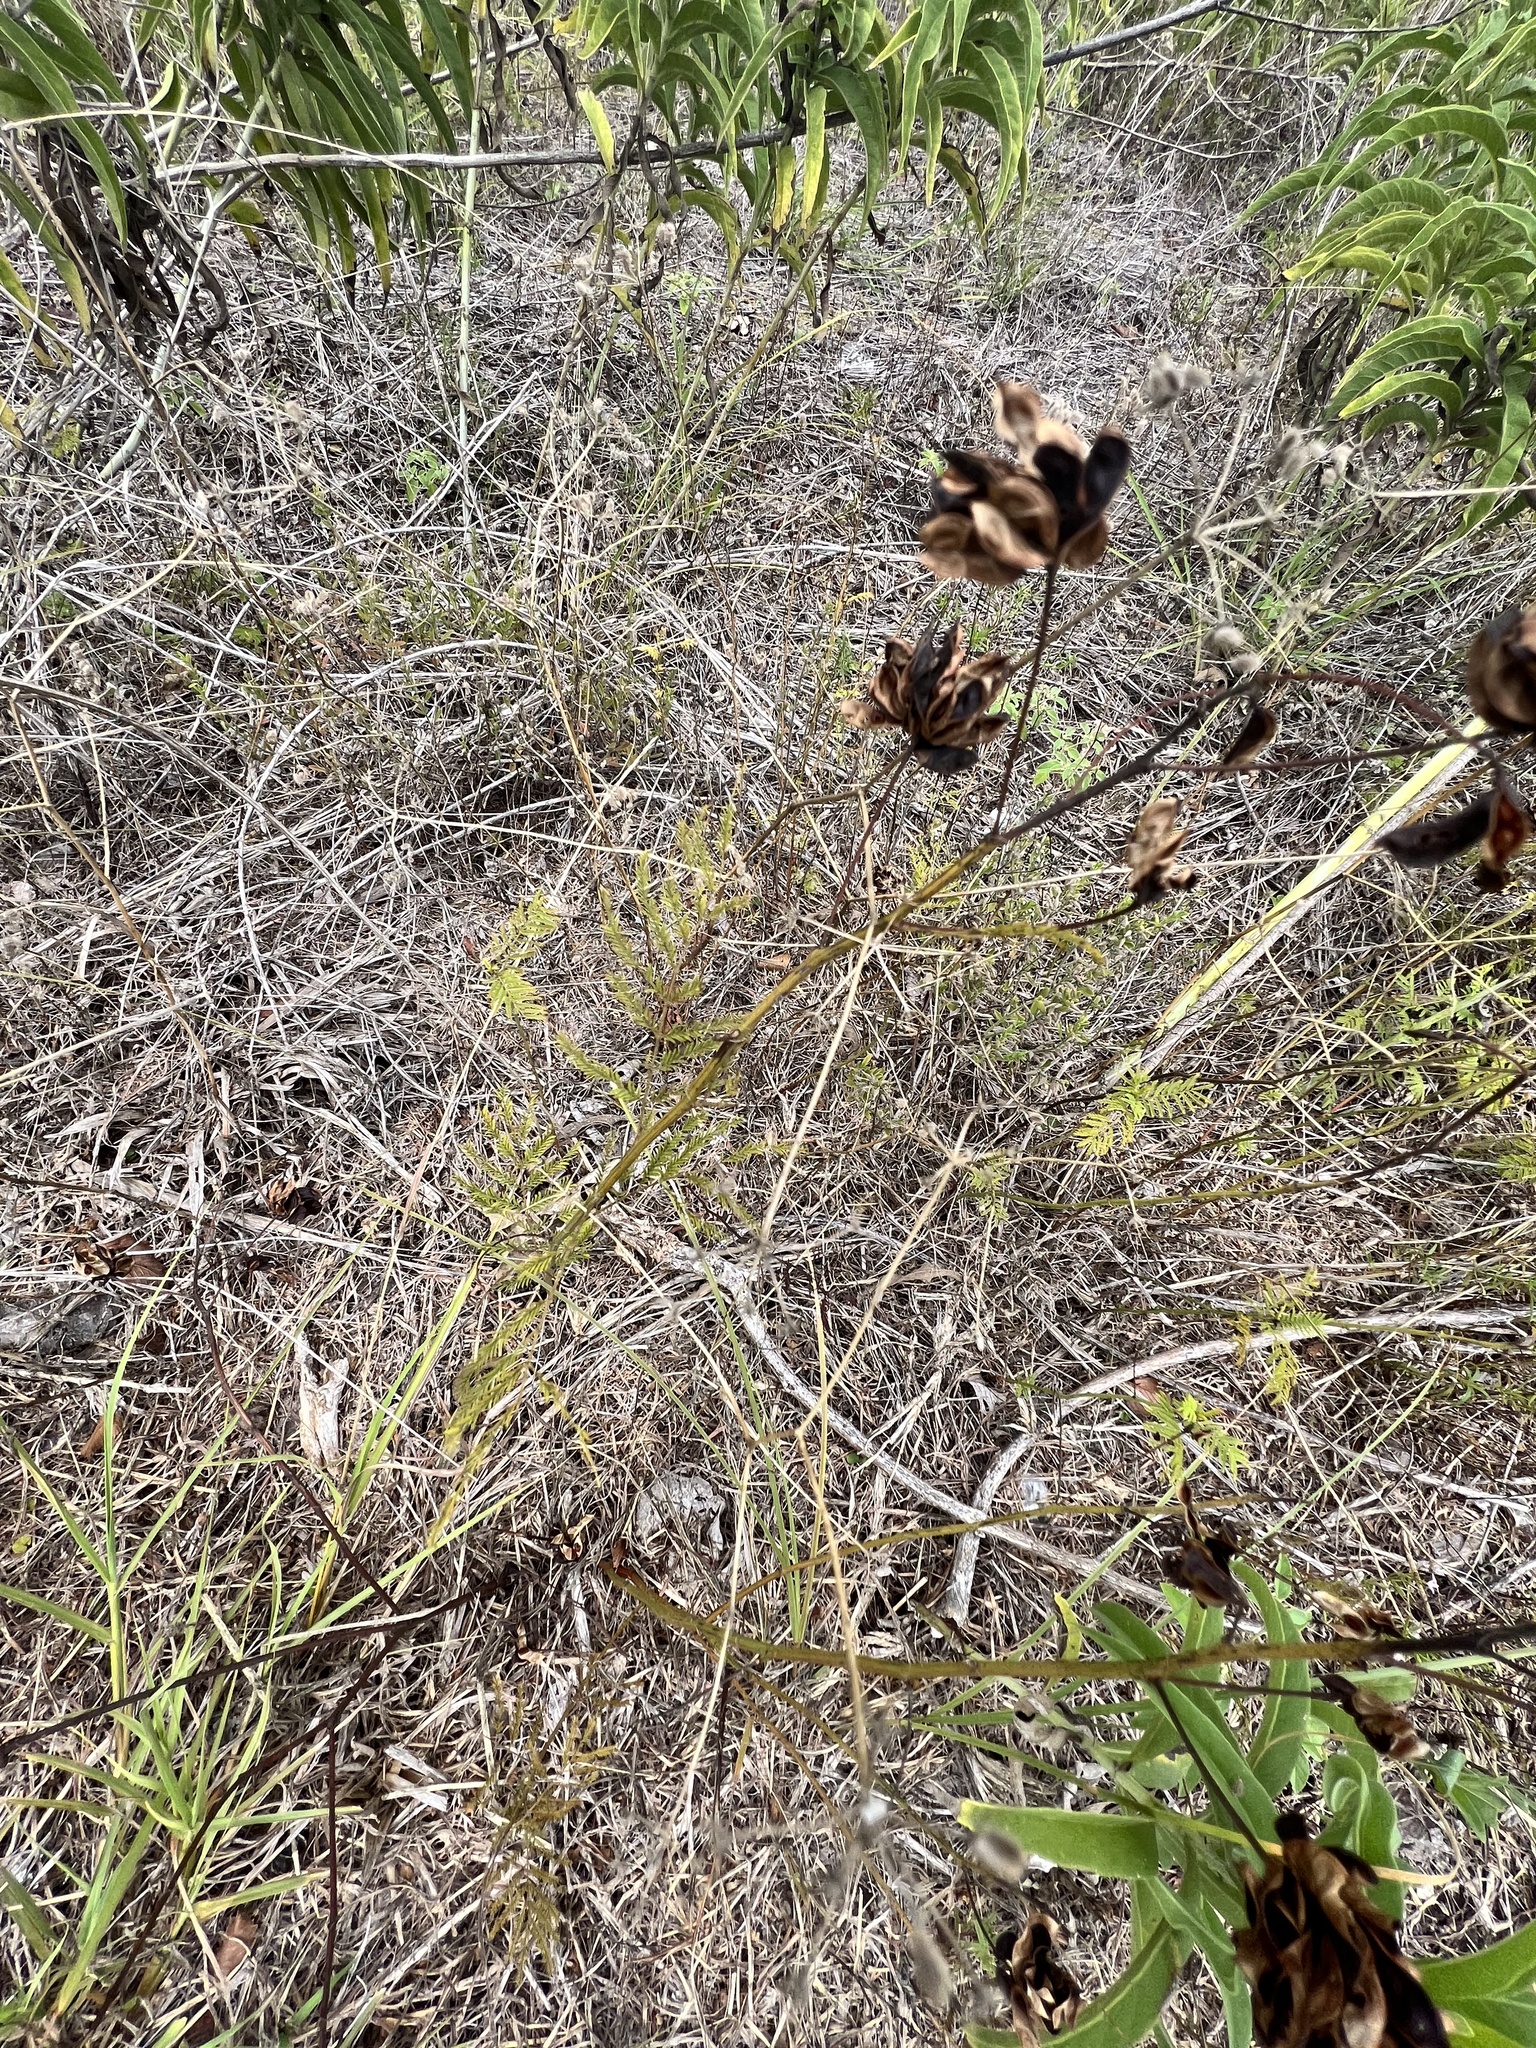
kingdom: Plantae
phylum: Tracheophyta
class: Magnoliopsida
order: Fabales
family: Fabaceae
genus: Desmanthus
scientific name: Desmanthus illinoensis
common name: Illinois bundle-flower
